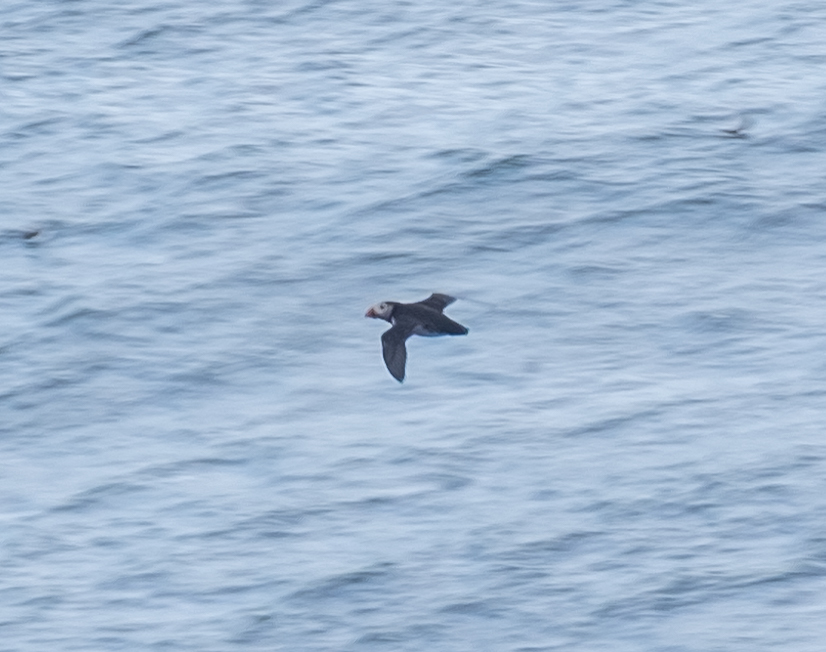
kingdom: Animalia
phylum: Chordata
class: Aves
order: Charadriiformes
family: Alcidae
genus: Fratercula
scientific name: Fratercula arctica
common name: Atlantic puffin
